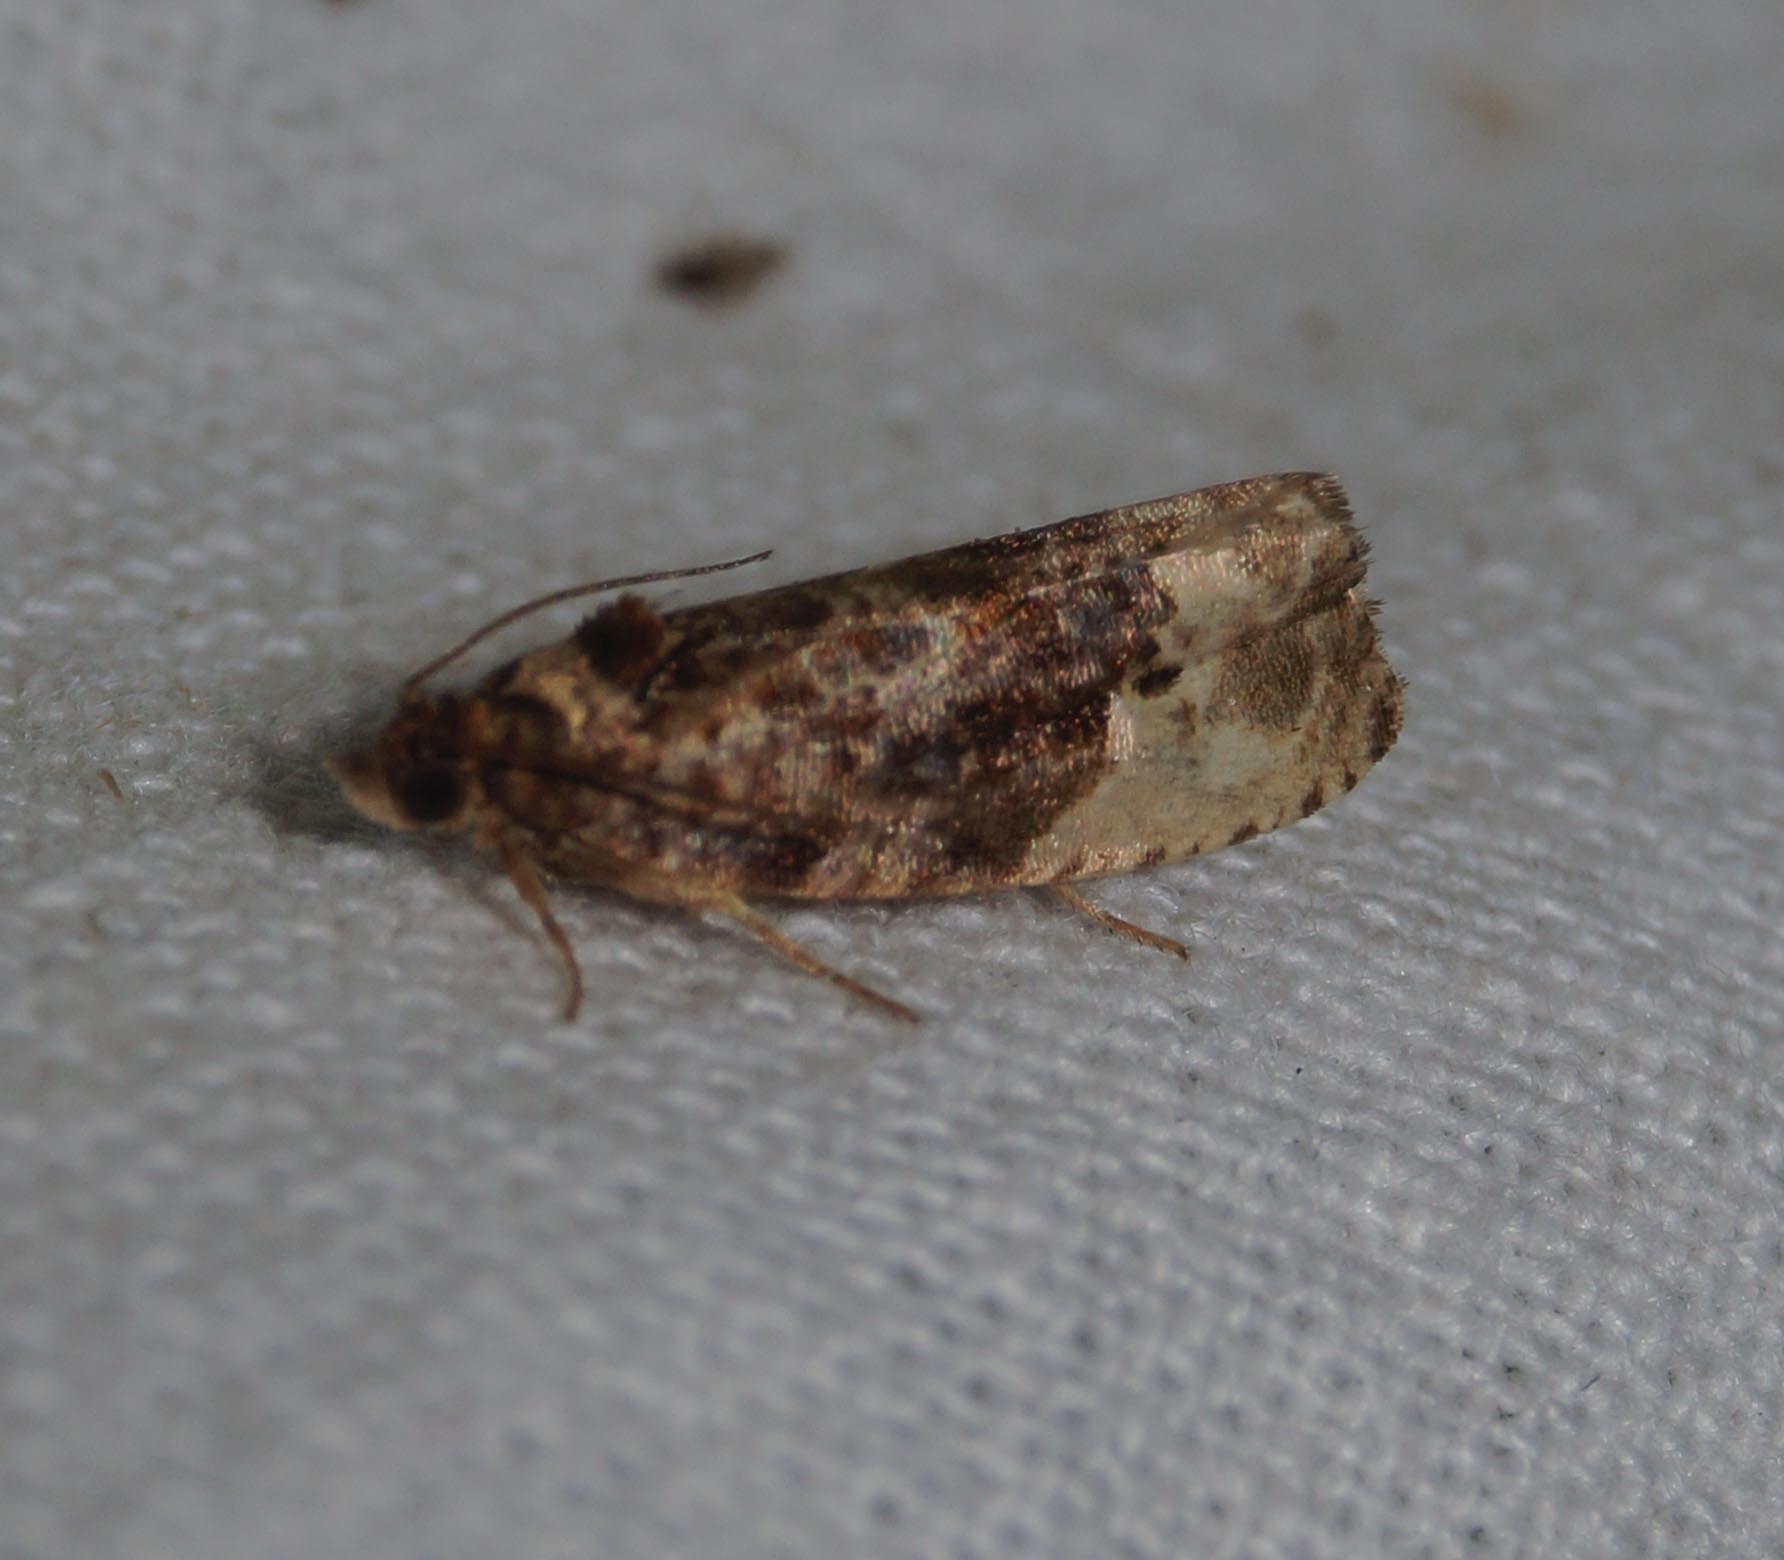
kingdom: Animalia
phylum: Arthropoda
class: Insecta
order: Lepidoptera
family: Tortricidae
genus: Hedya
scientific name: Hedya nubiferana
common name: Marbled orchard tortrix
